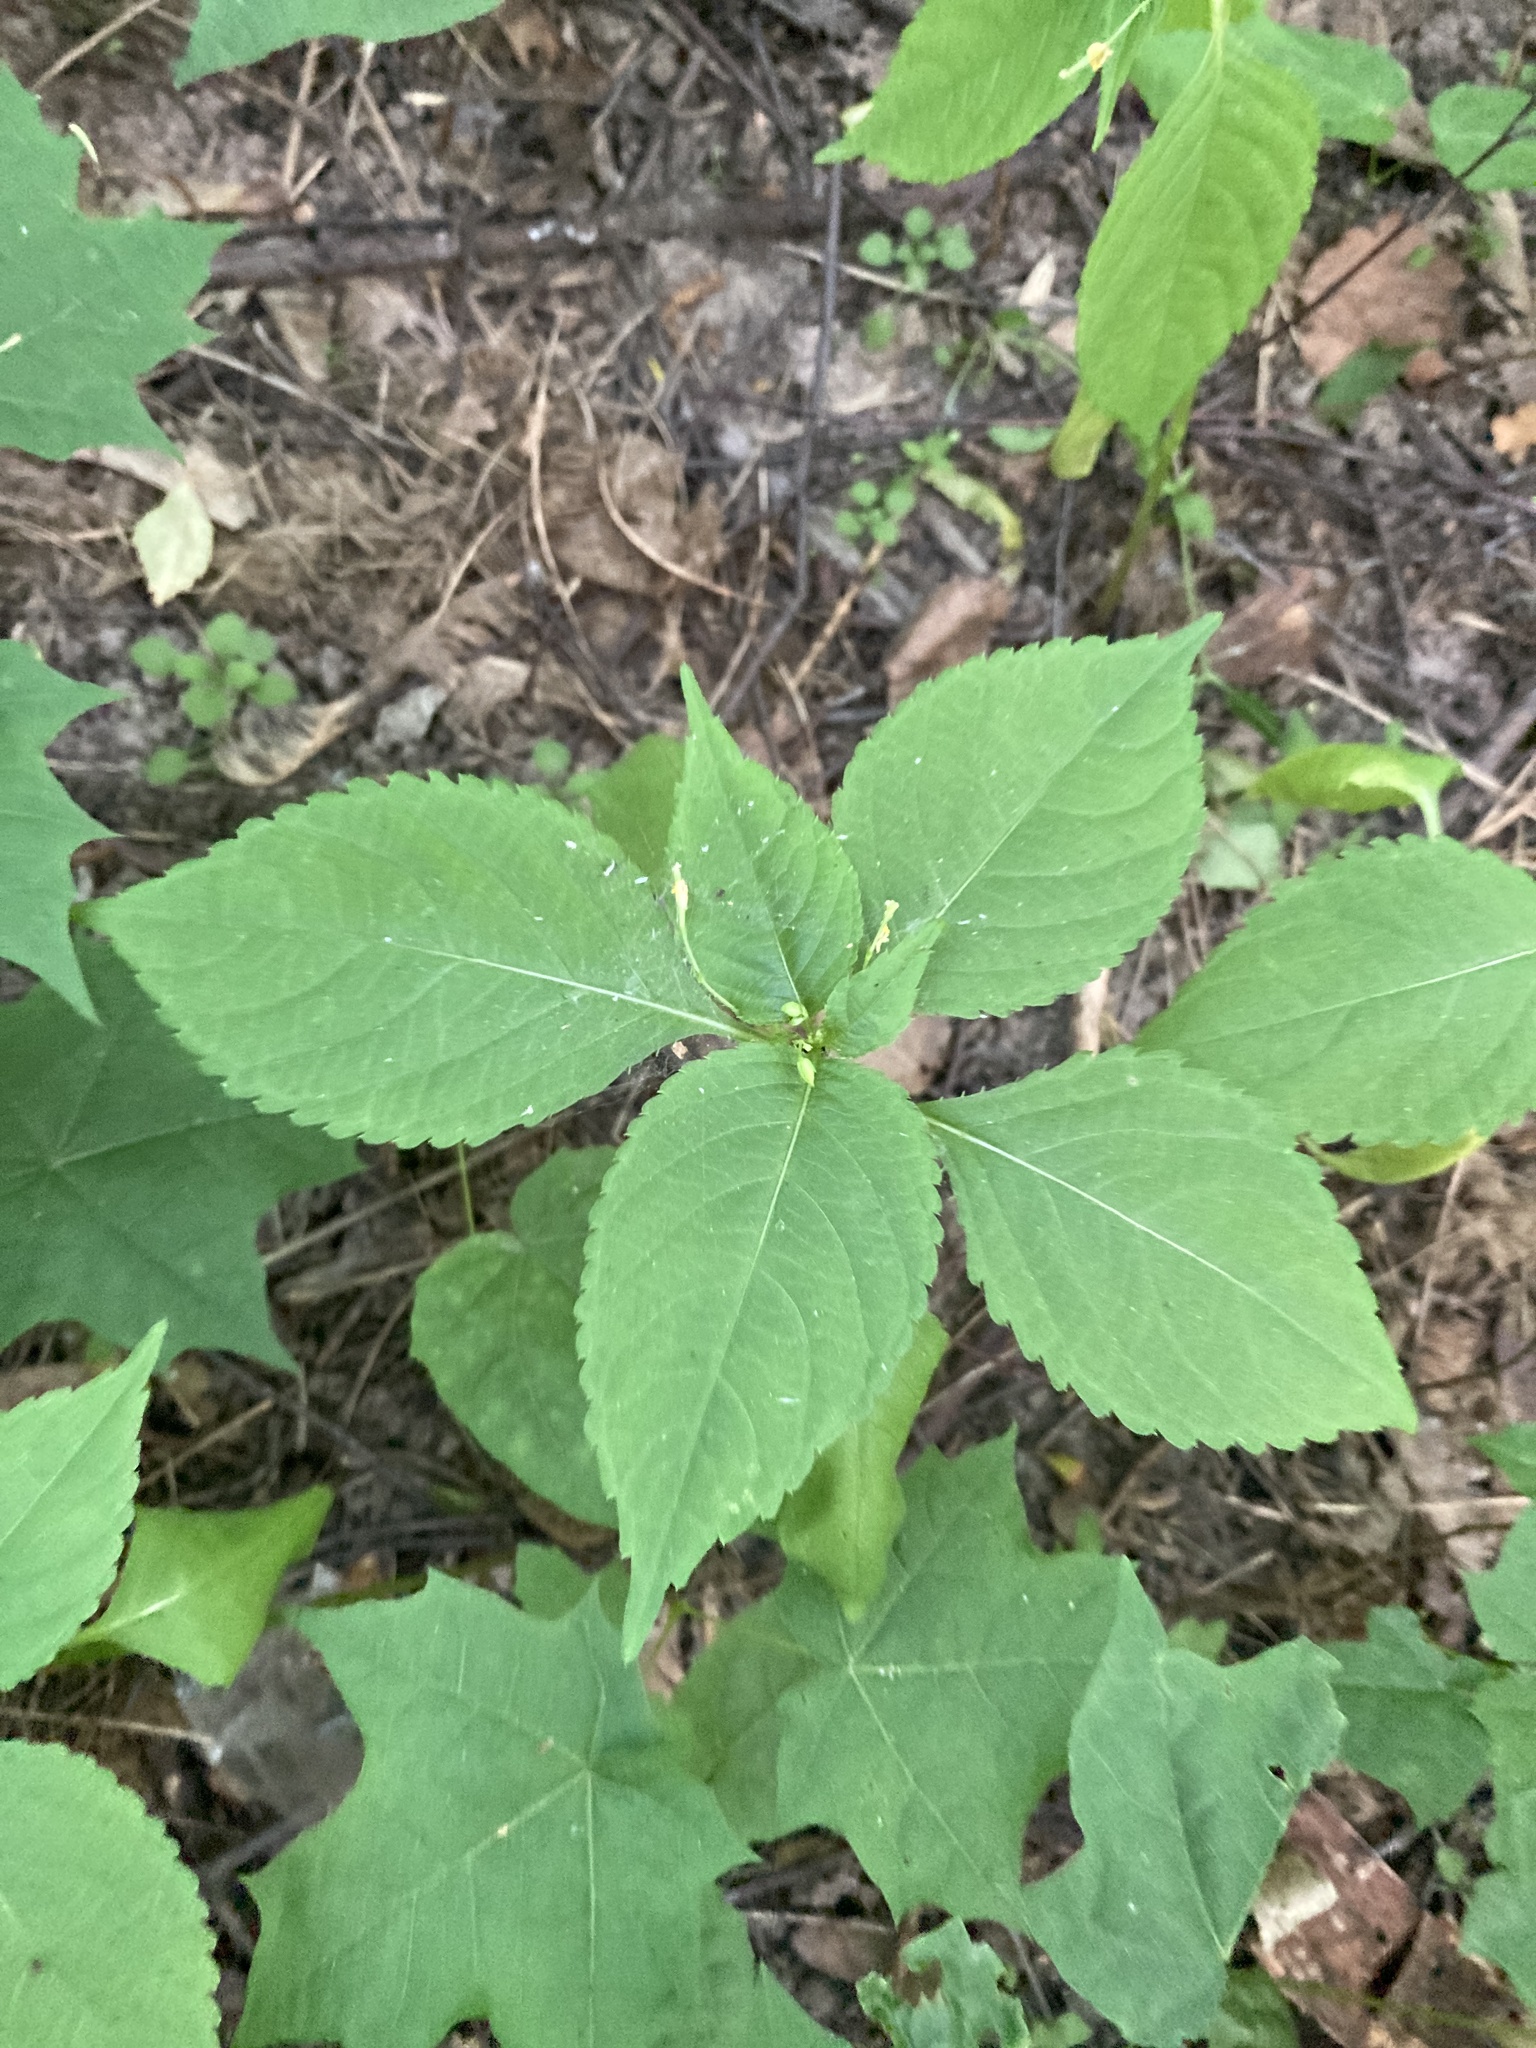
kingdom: Plantae
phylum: Tracheophyta
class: Magnoliopsida
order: Ericales
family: Balsaminaceae
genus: Impatiens
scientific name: Impatiens parviflora
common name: Small balsam
